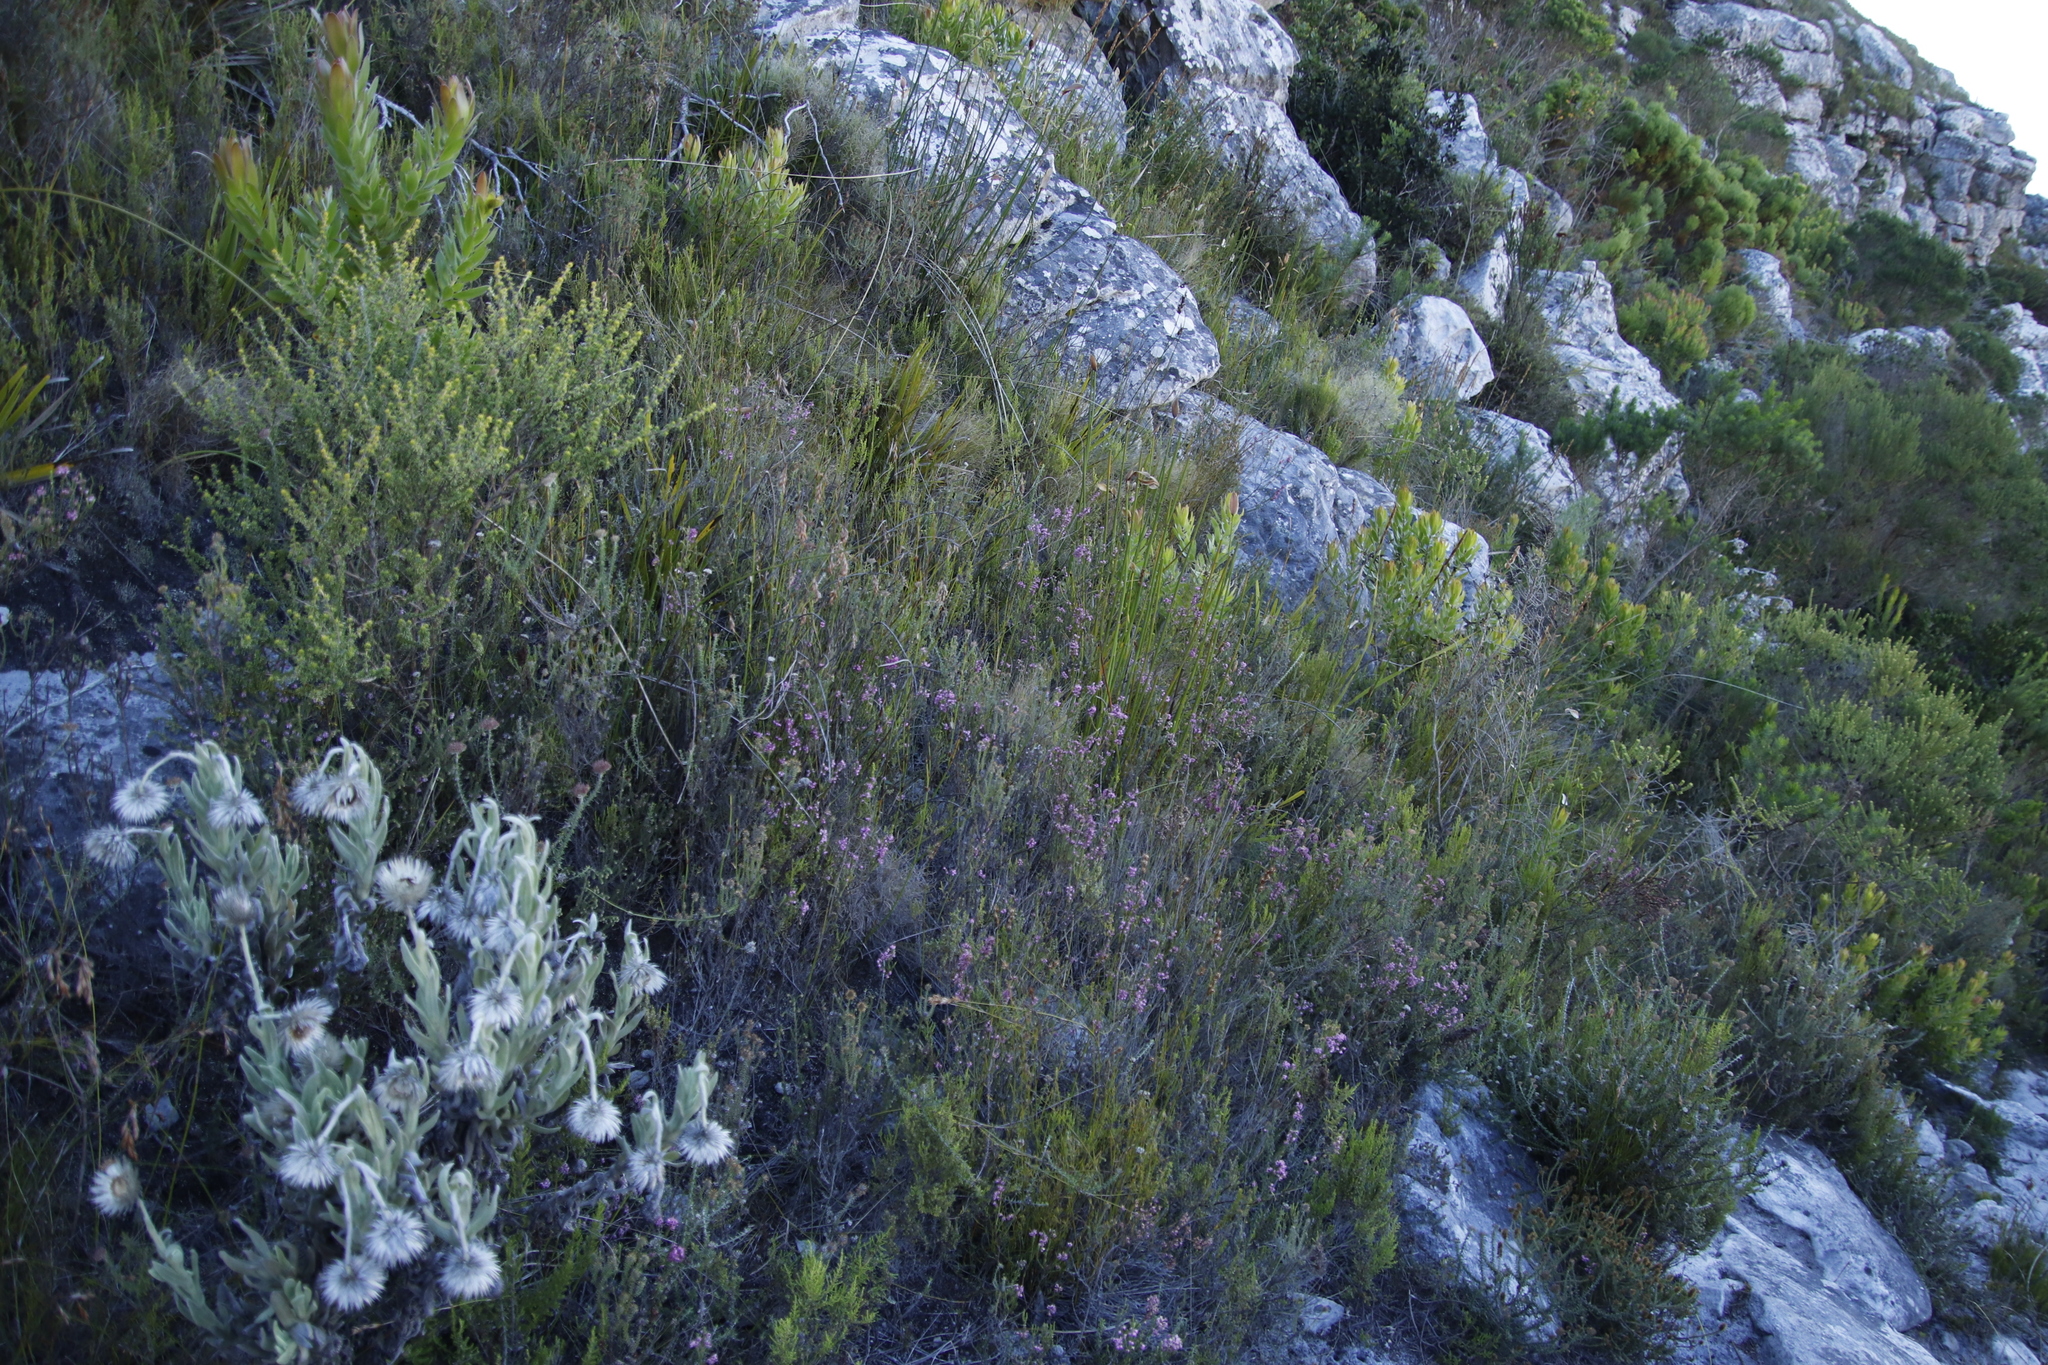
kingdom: Plantae
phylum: Tracheophyta
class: Magnoliopsida
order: Ericales
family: Ericaceae
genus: Erica
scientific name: Erica corifolia
